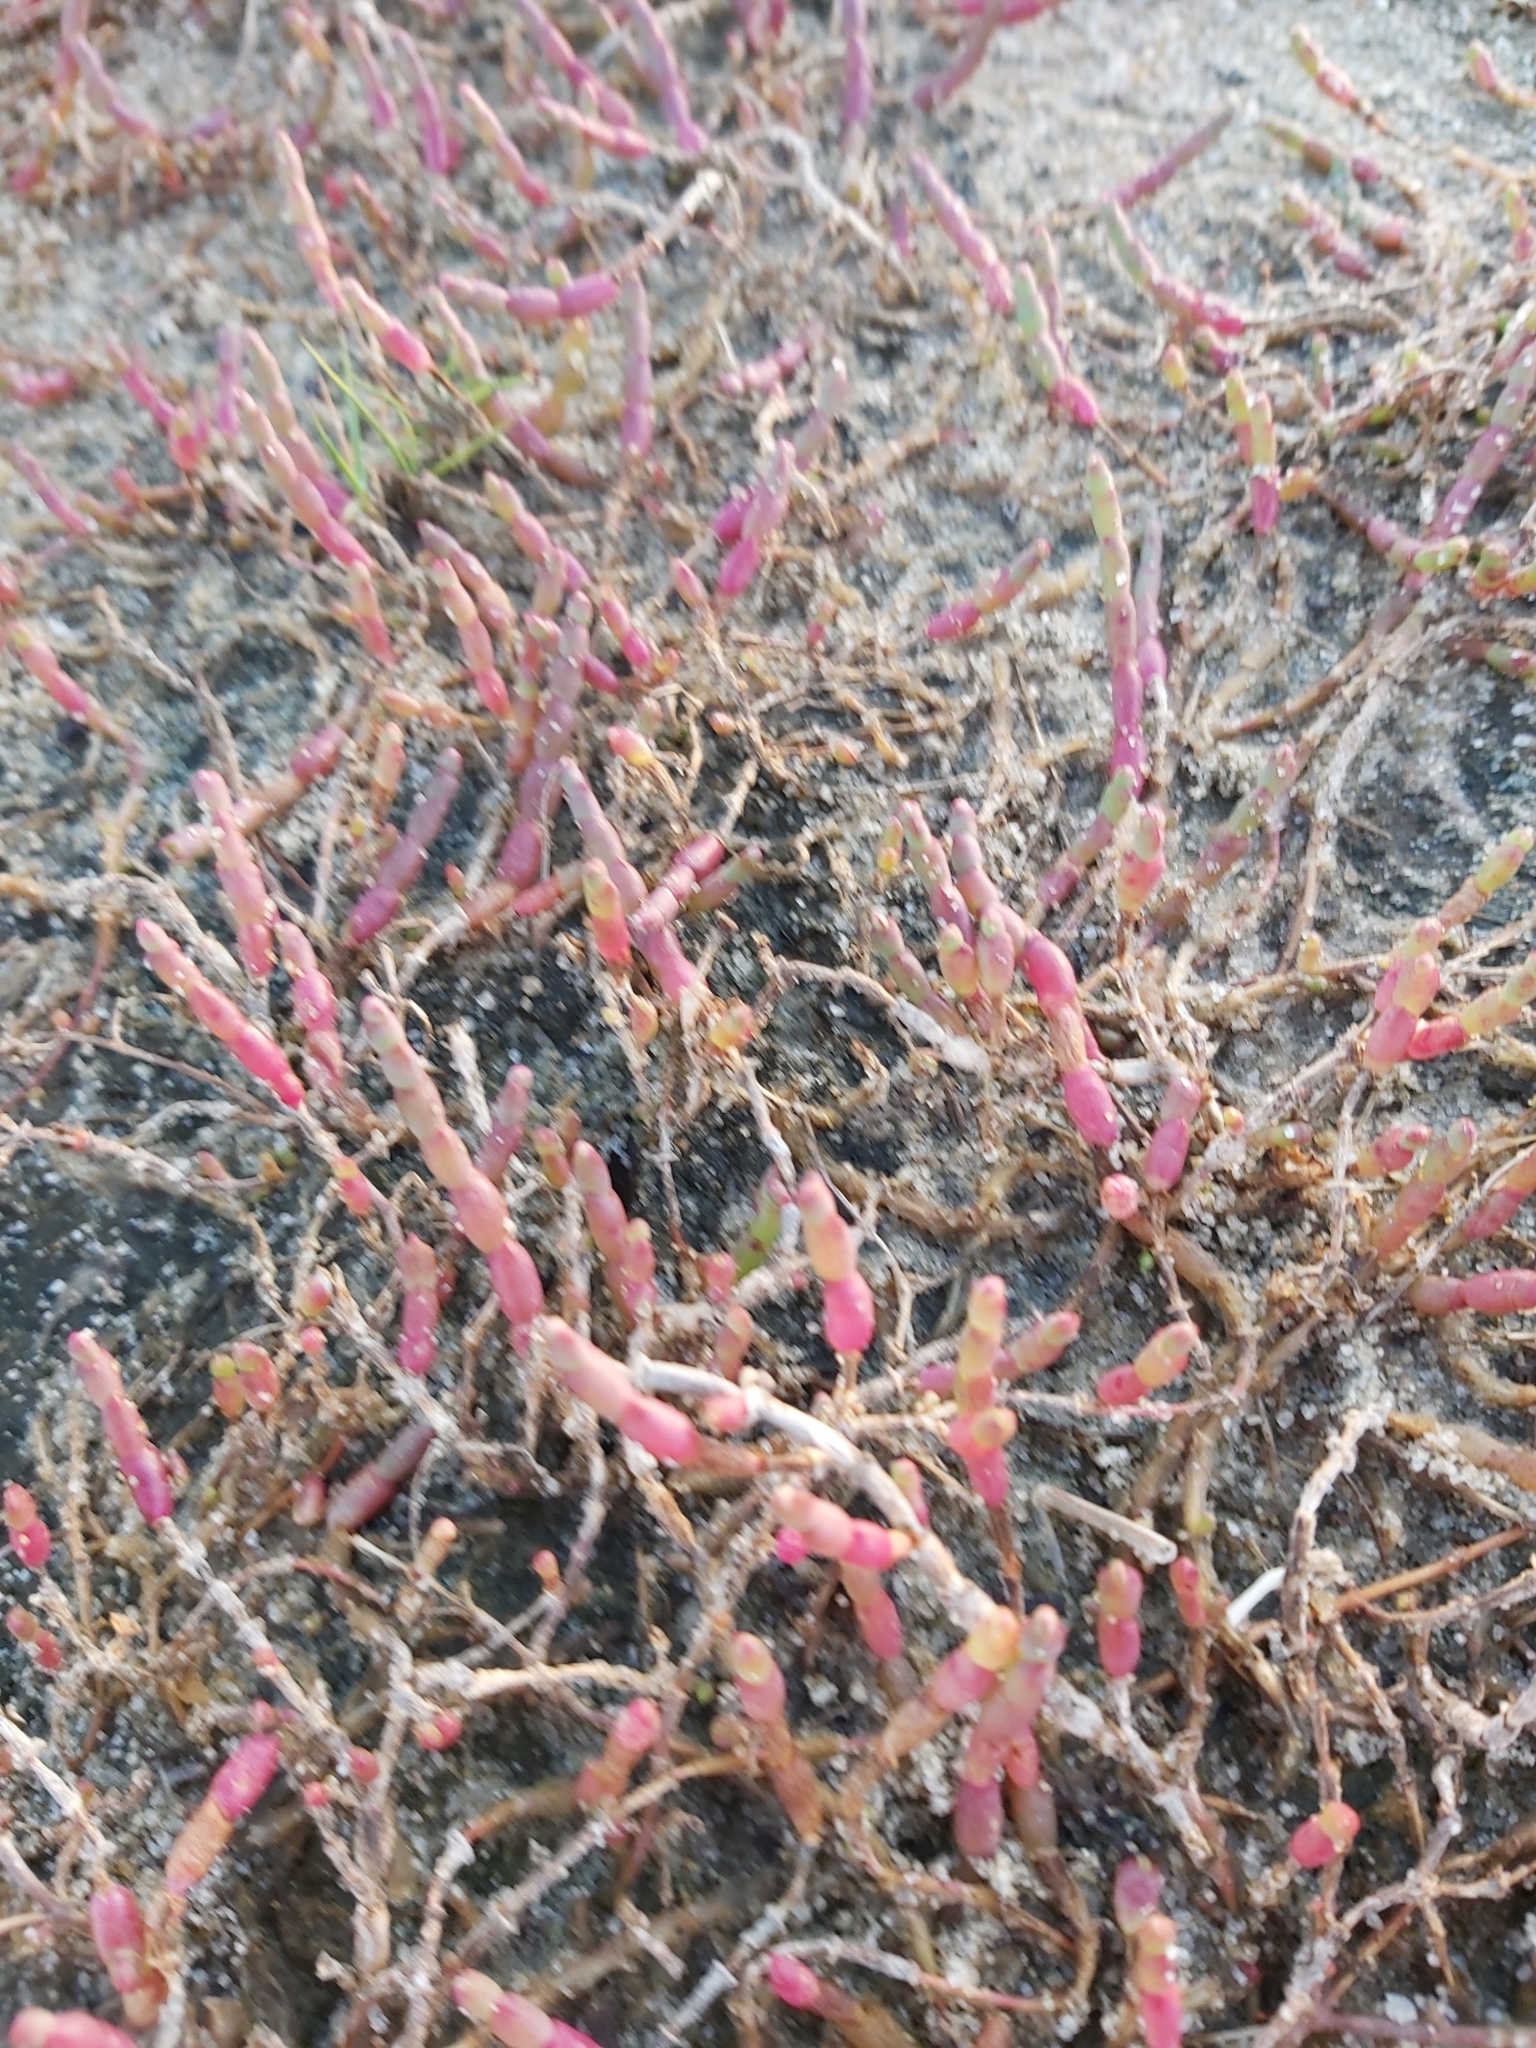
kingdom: Plantae
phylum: Tracheophyta
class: Magnoliopsida
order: Caryophyllales
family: Amaranthaceae
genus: Salicornia
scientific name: Salicornia quinqueflora
